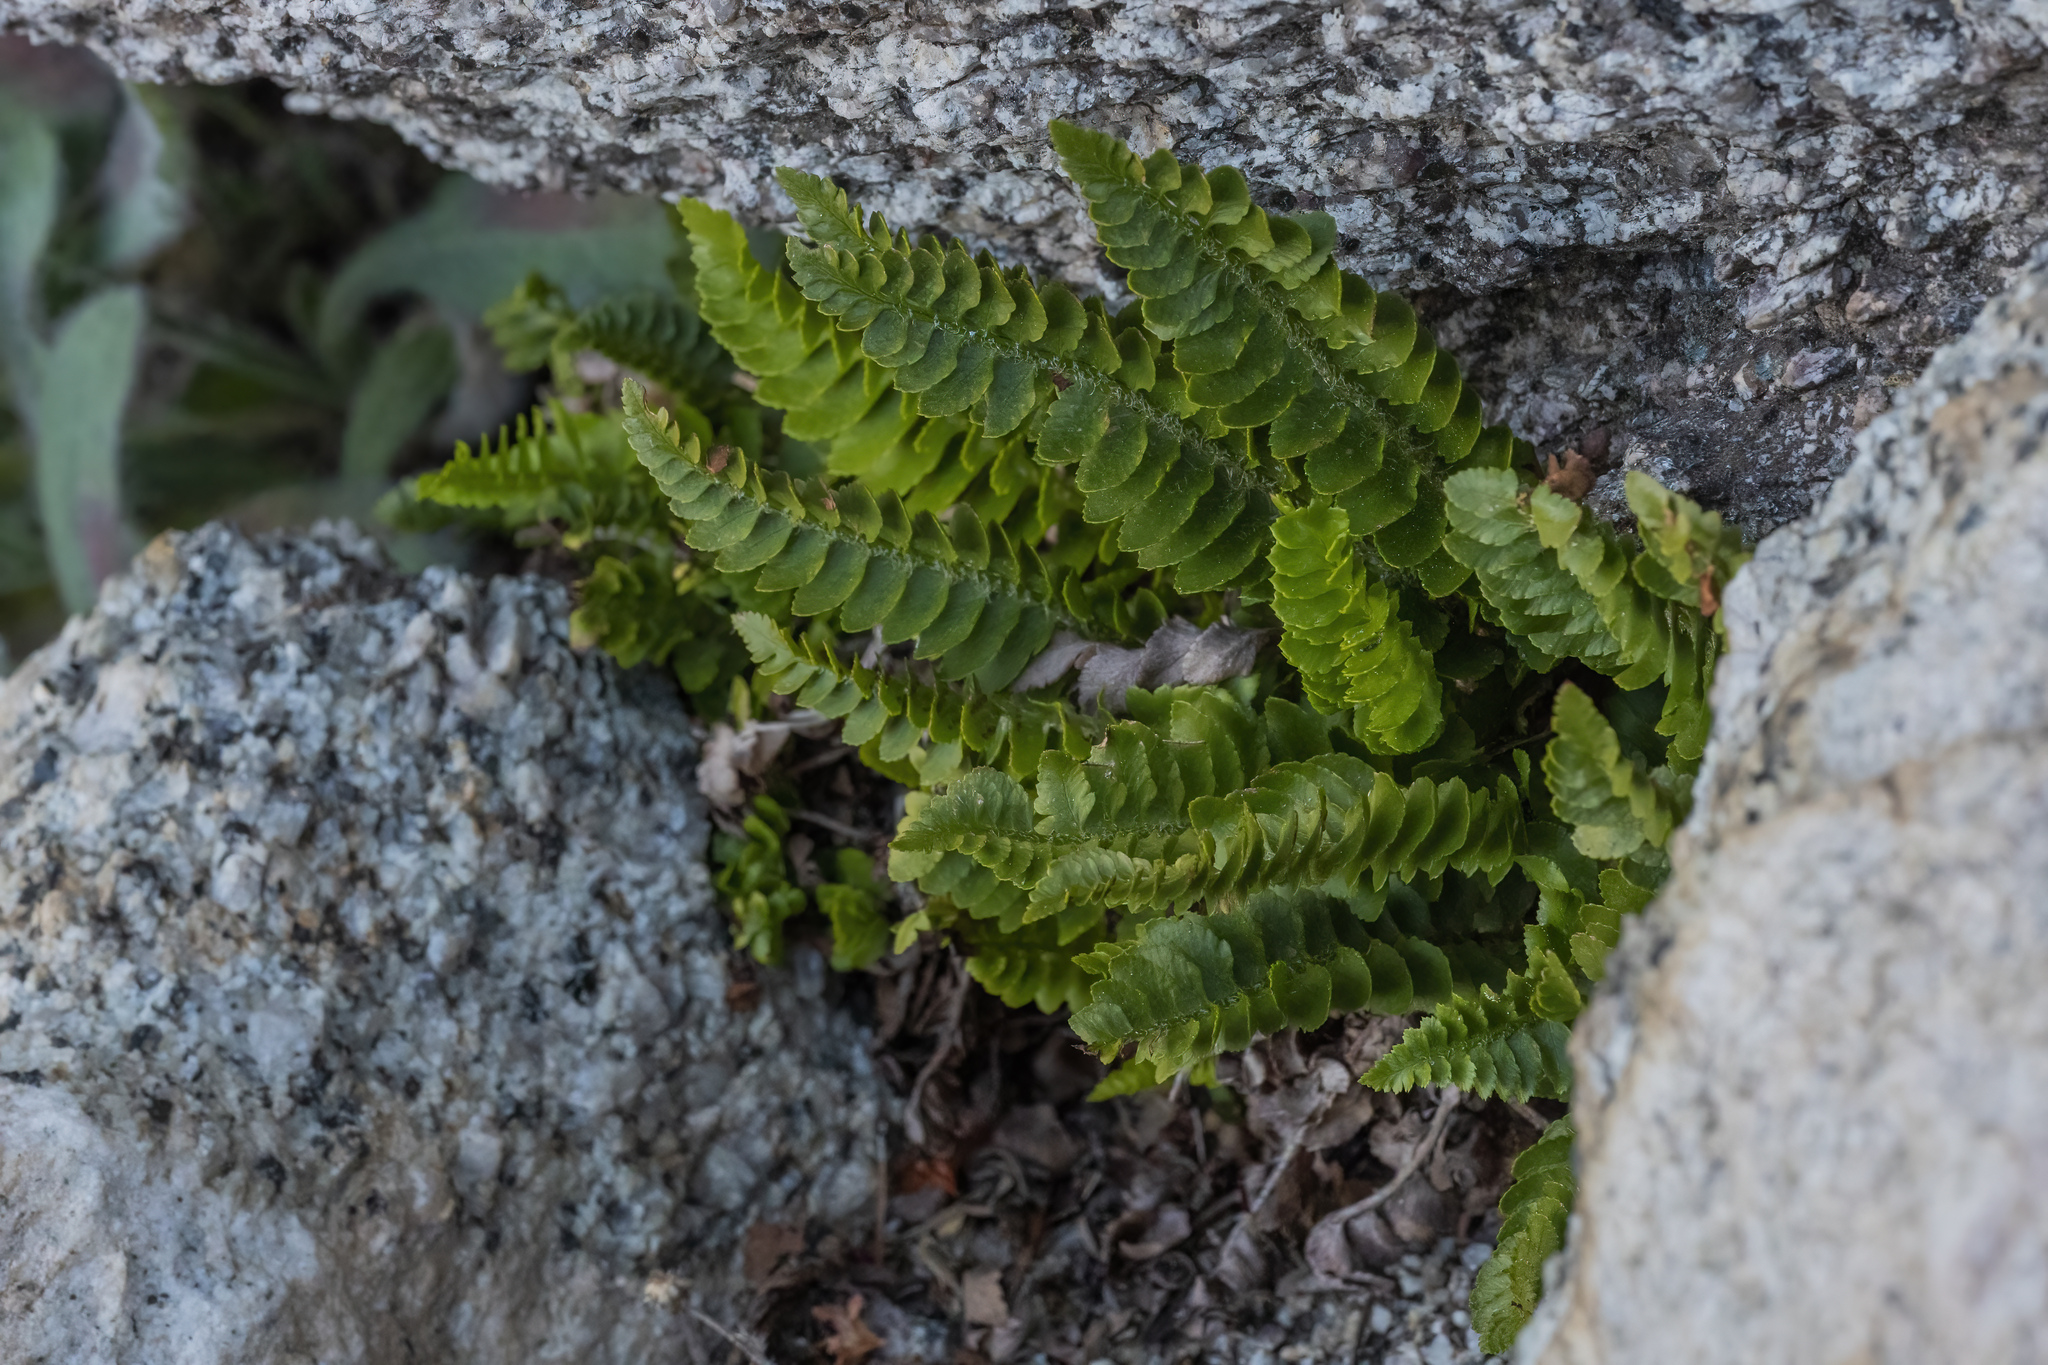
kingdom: Plantae
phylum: Tracheophyta
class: Polypodiopsida
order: Polypodiales
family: Dryopteridaceae
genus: Polystichum
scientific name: Polystichum scopulinum
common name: Eaton's shield fern
